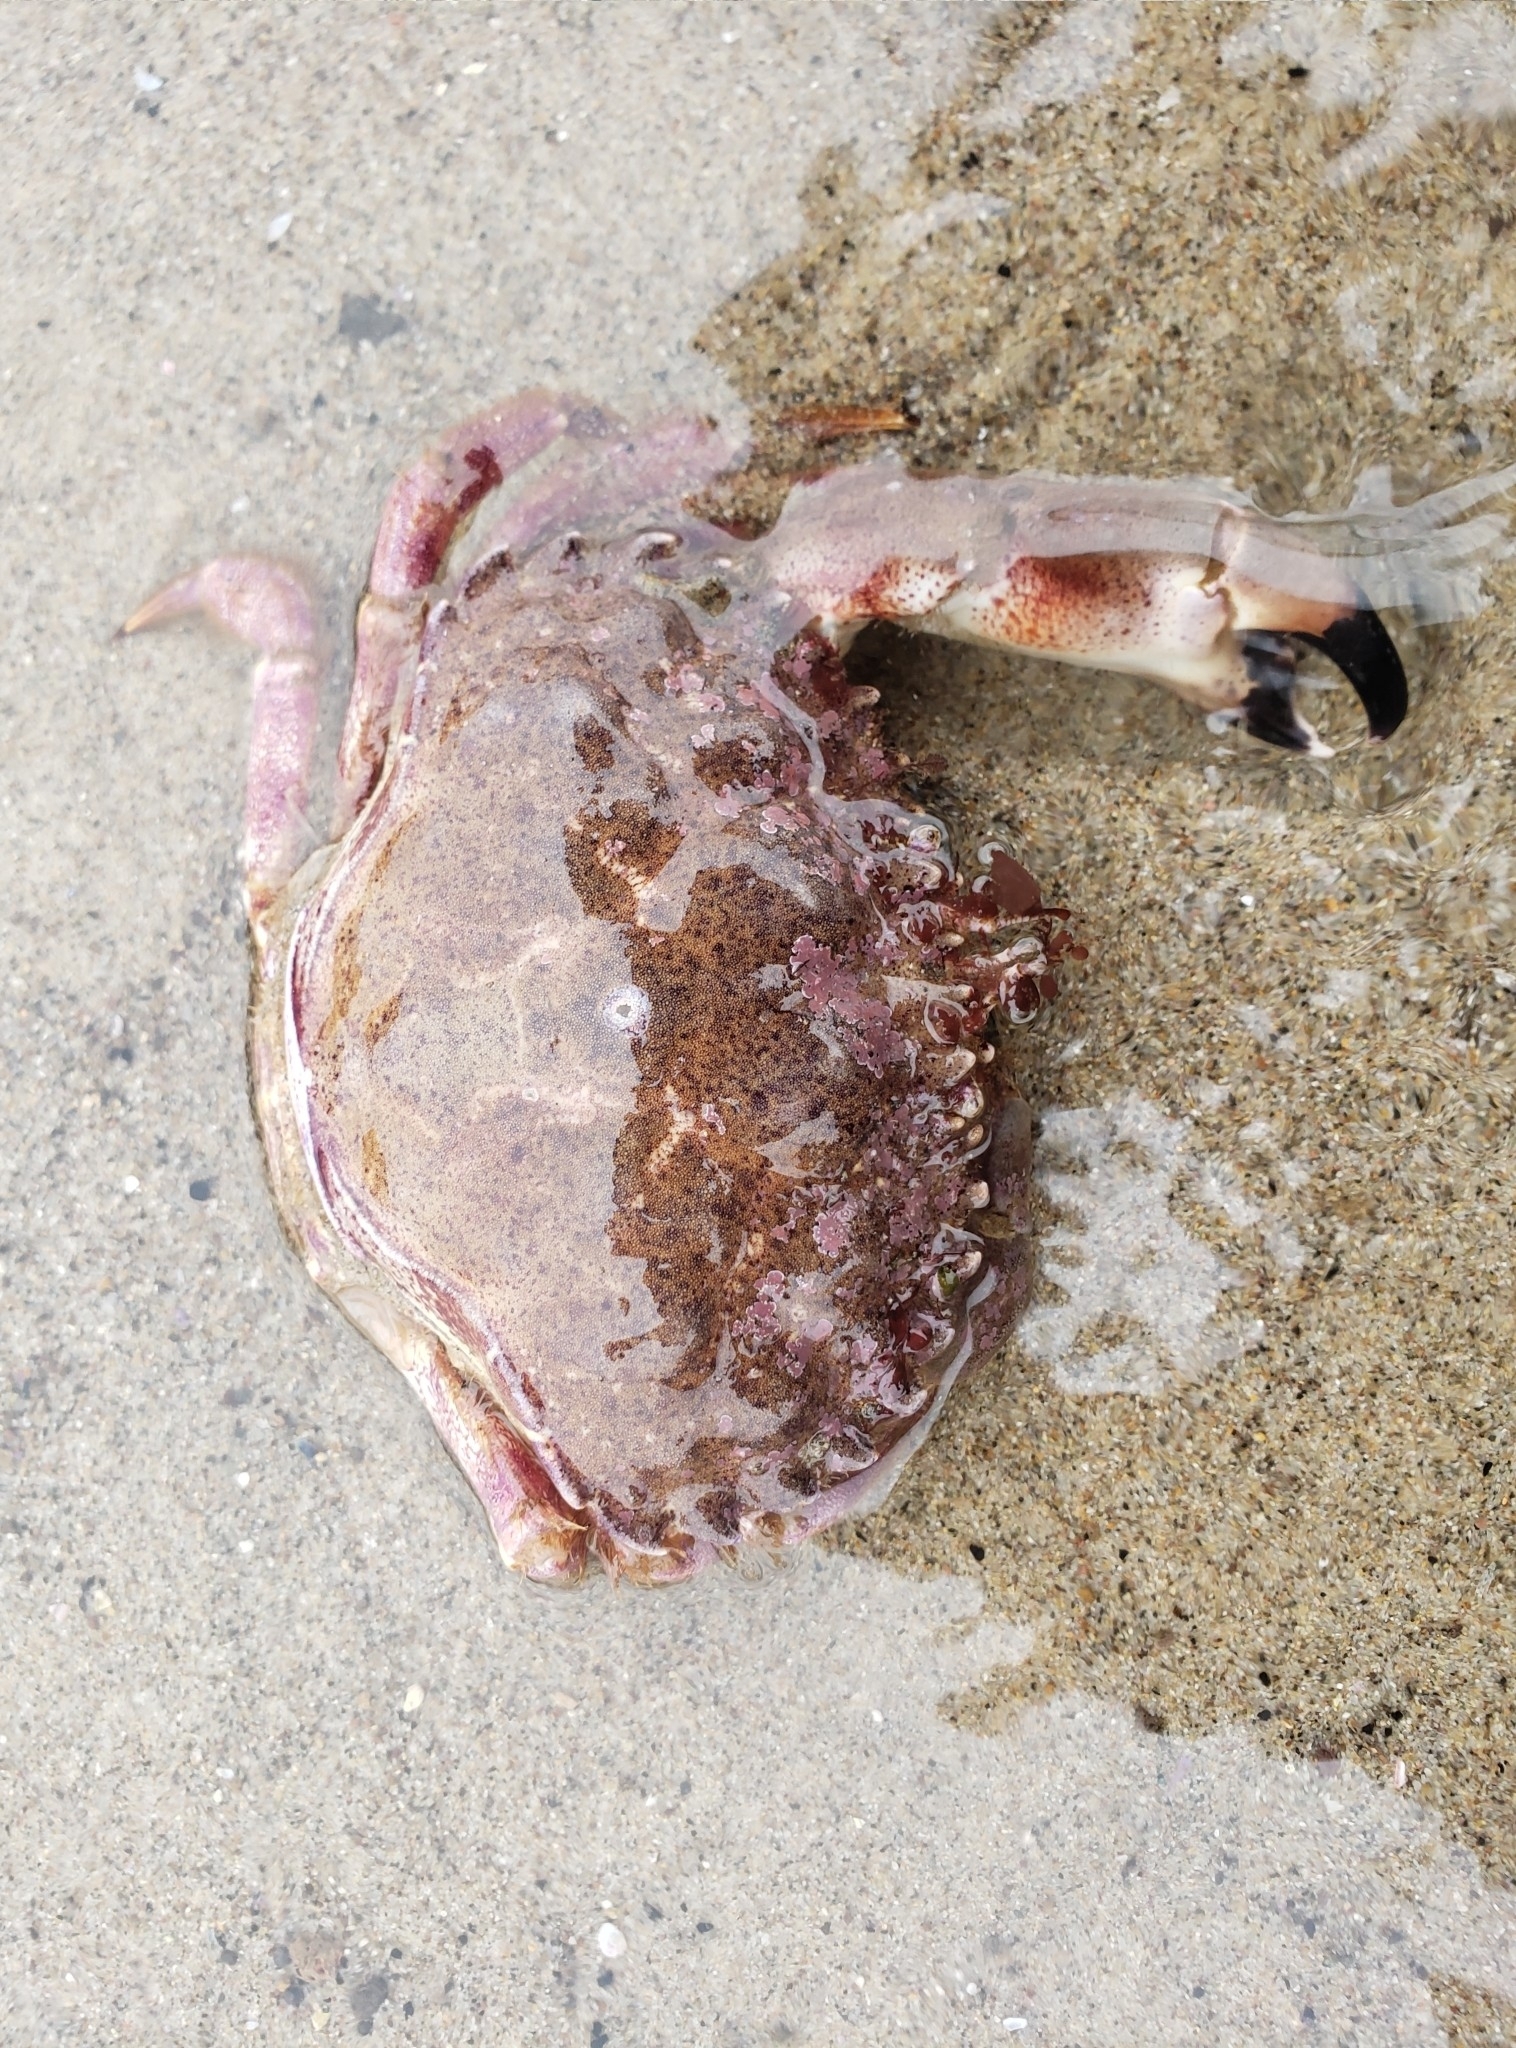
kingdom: Animalia
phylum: Arthropoda
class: Malacostraca
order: Decapoda
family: Cancridae
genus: Romaleon
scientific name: Romaleon antennarium
